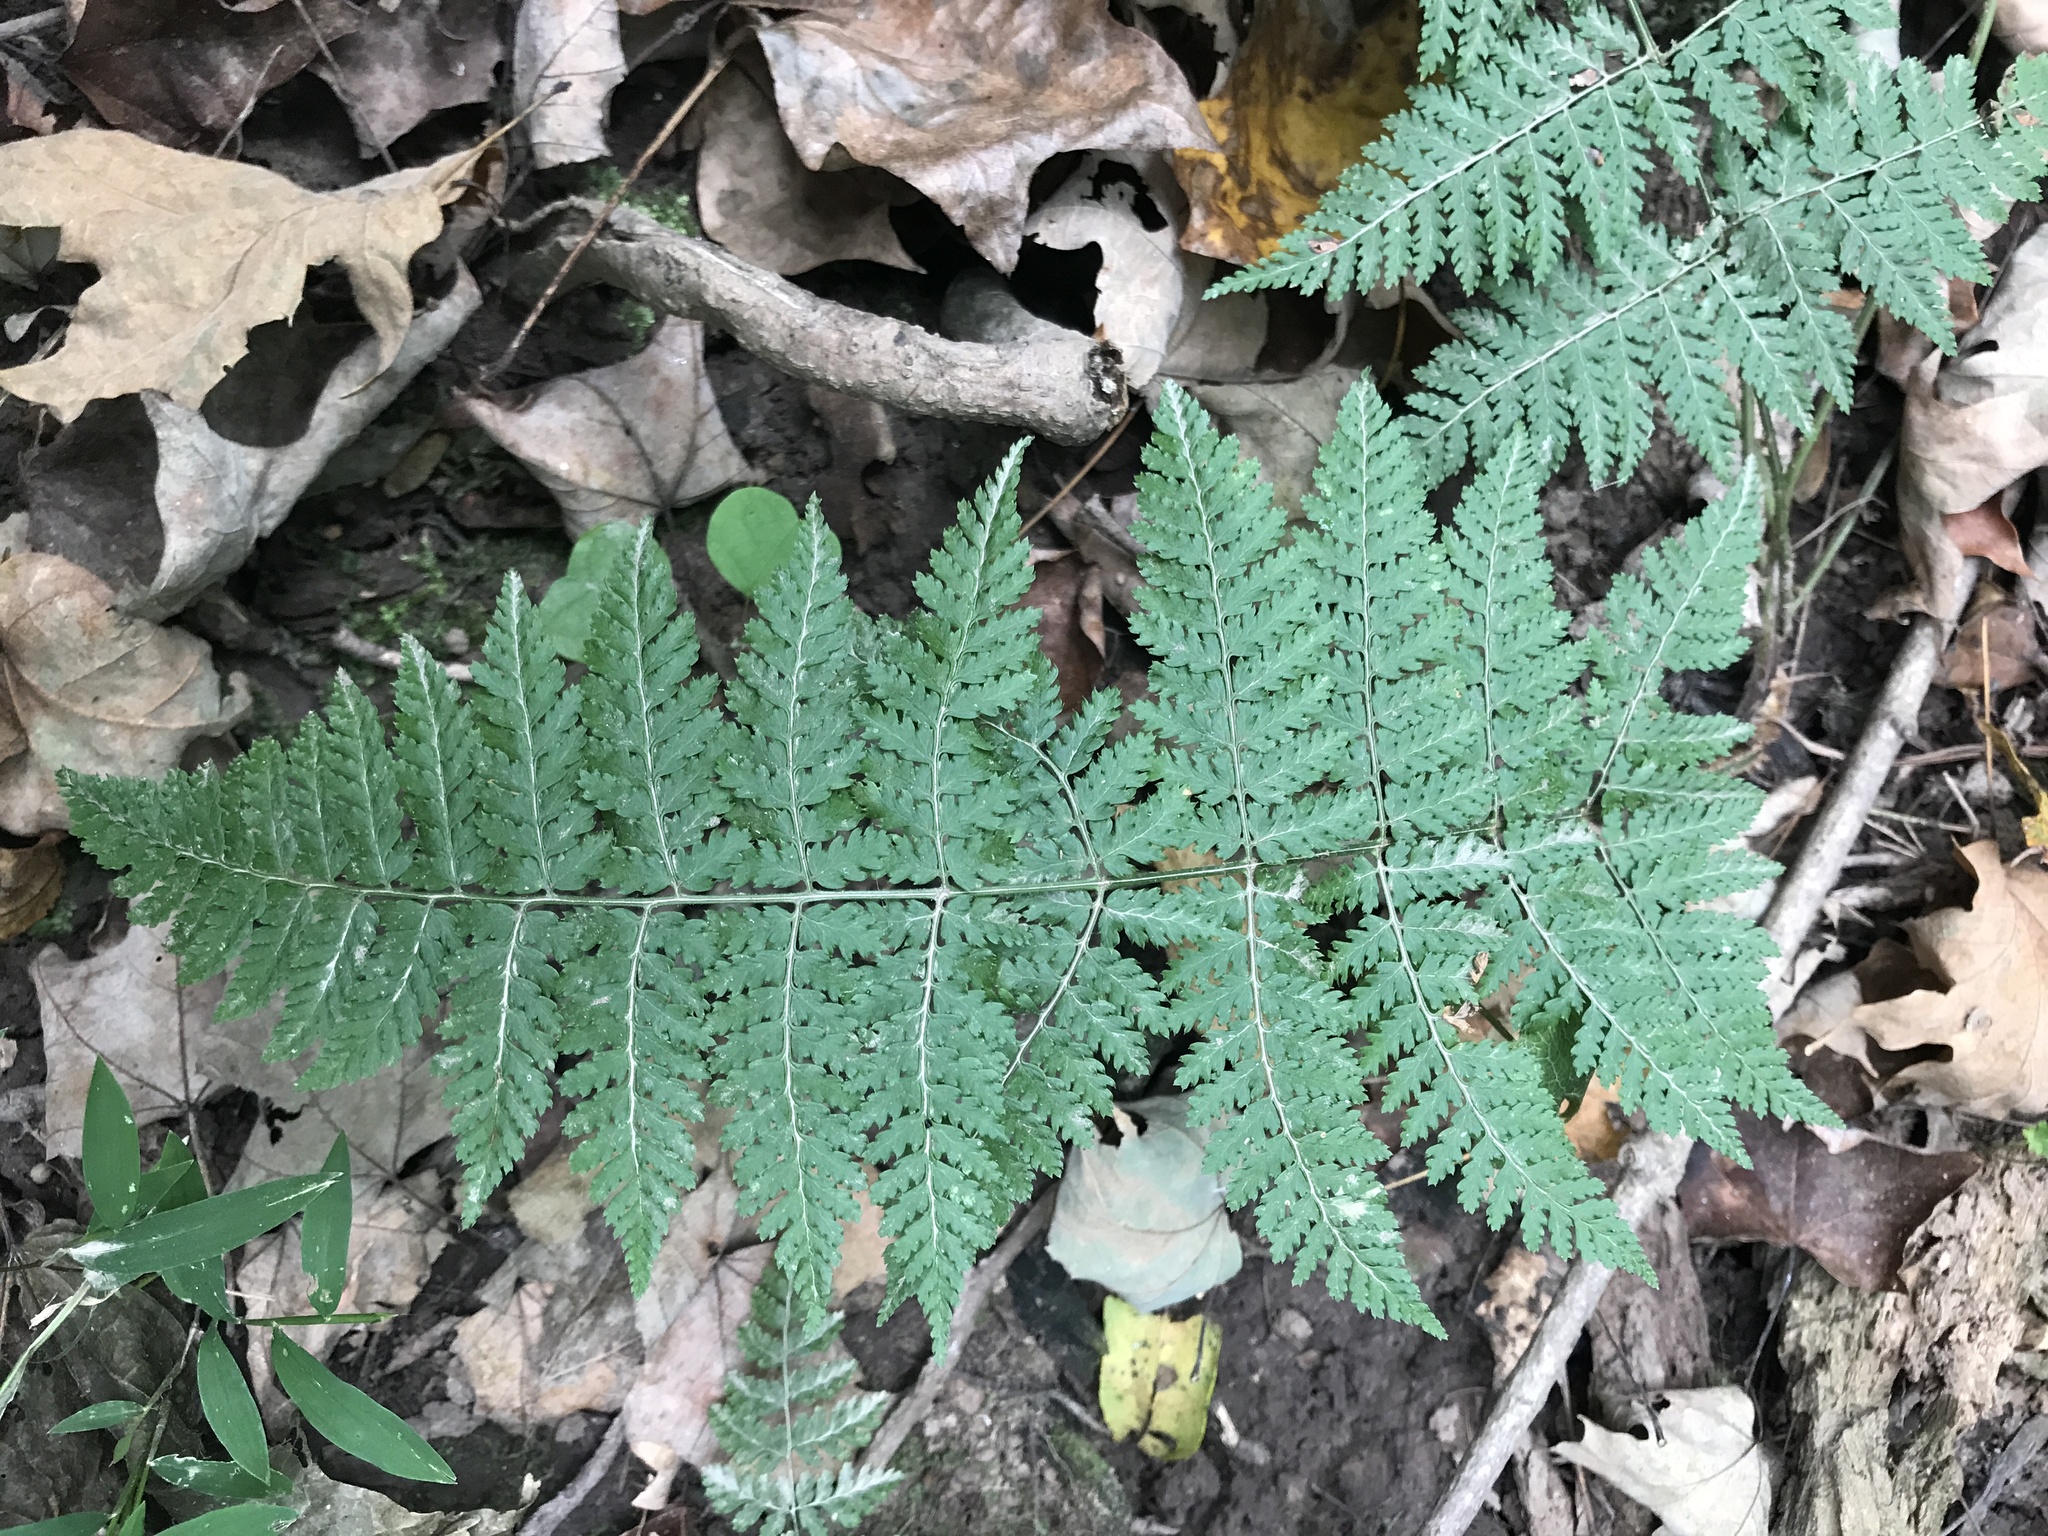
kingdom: Plantae
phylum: Tracheophyta
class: Polypodiopsida
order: Polypodiales
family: Dryopteridaceae
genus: Dryopteris
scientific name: Dryopteris intermedia
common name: Evergreen wood fern
